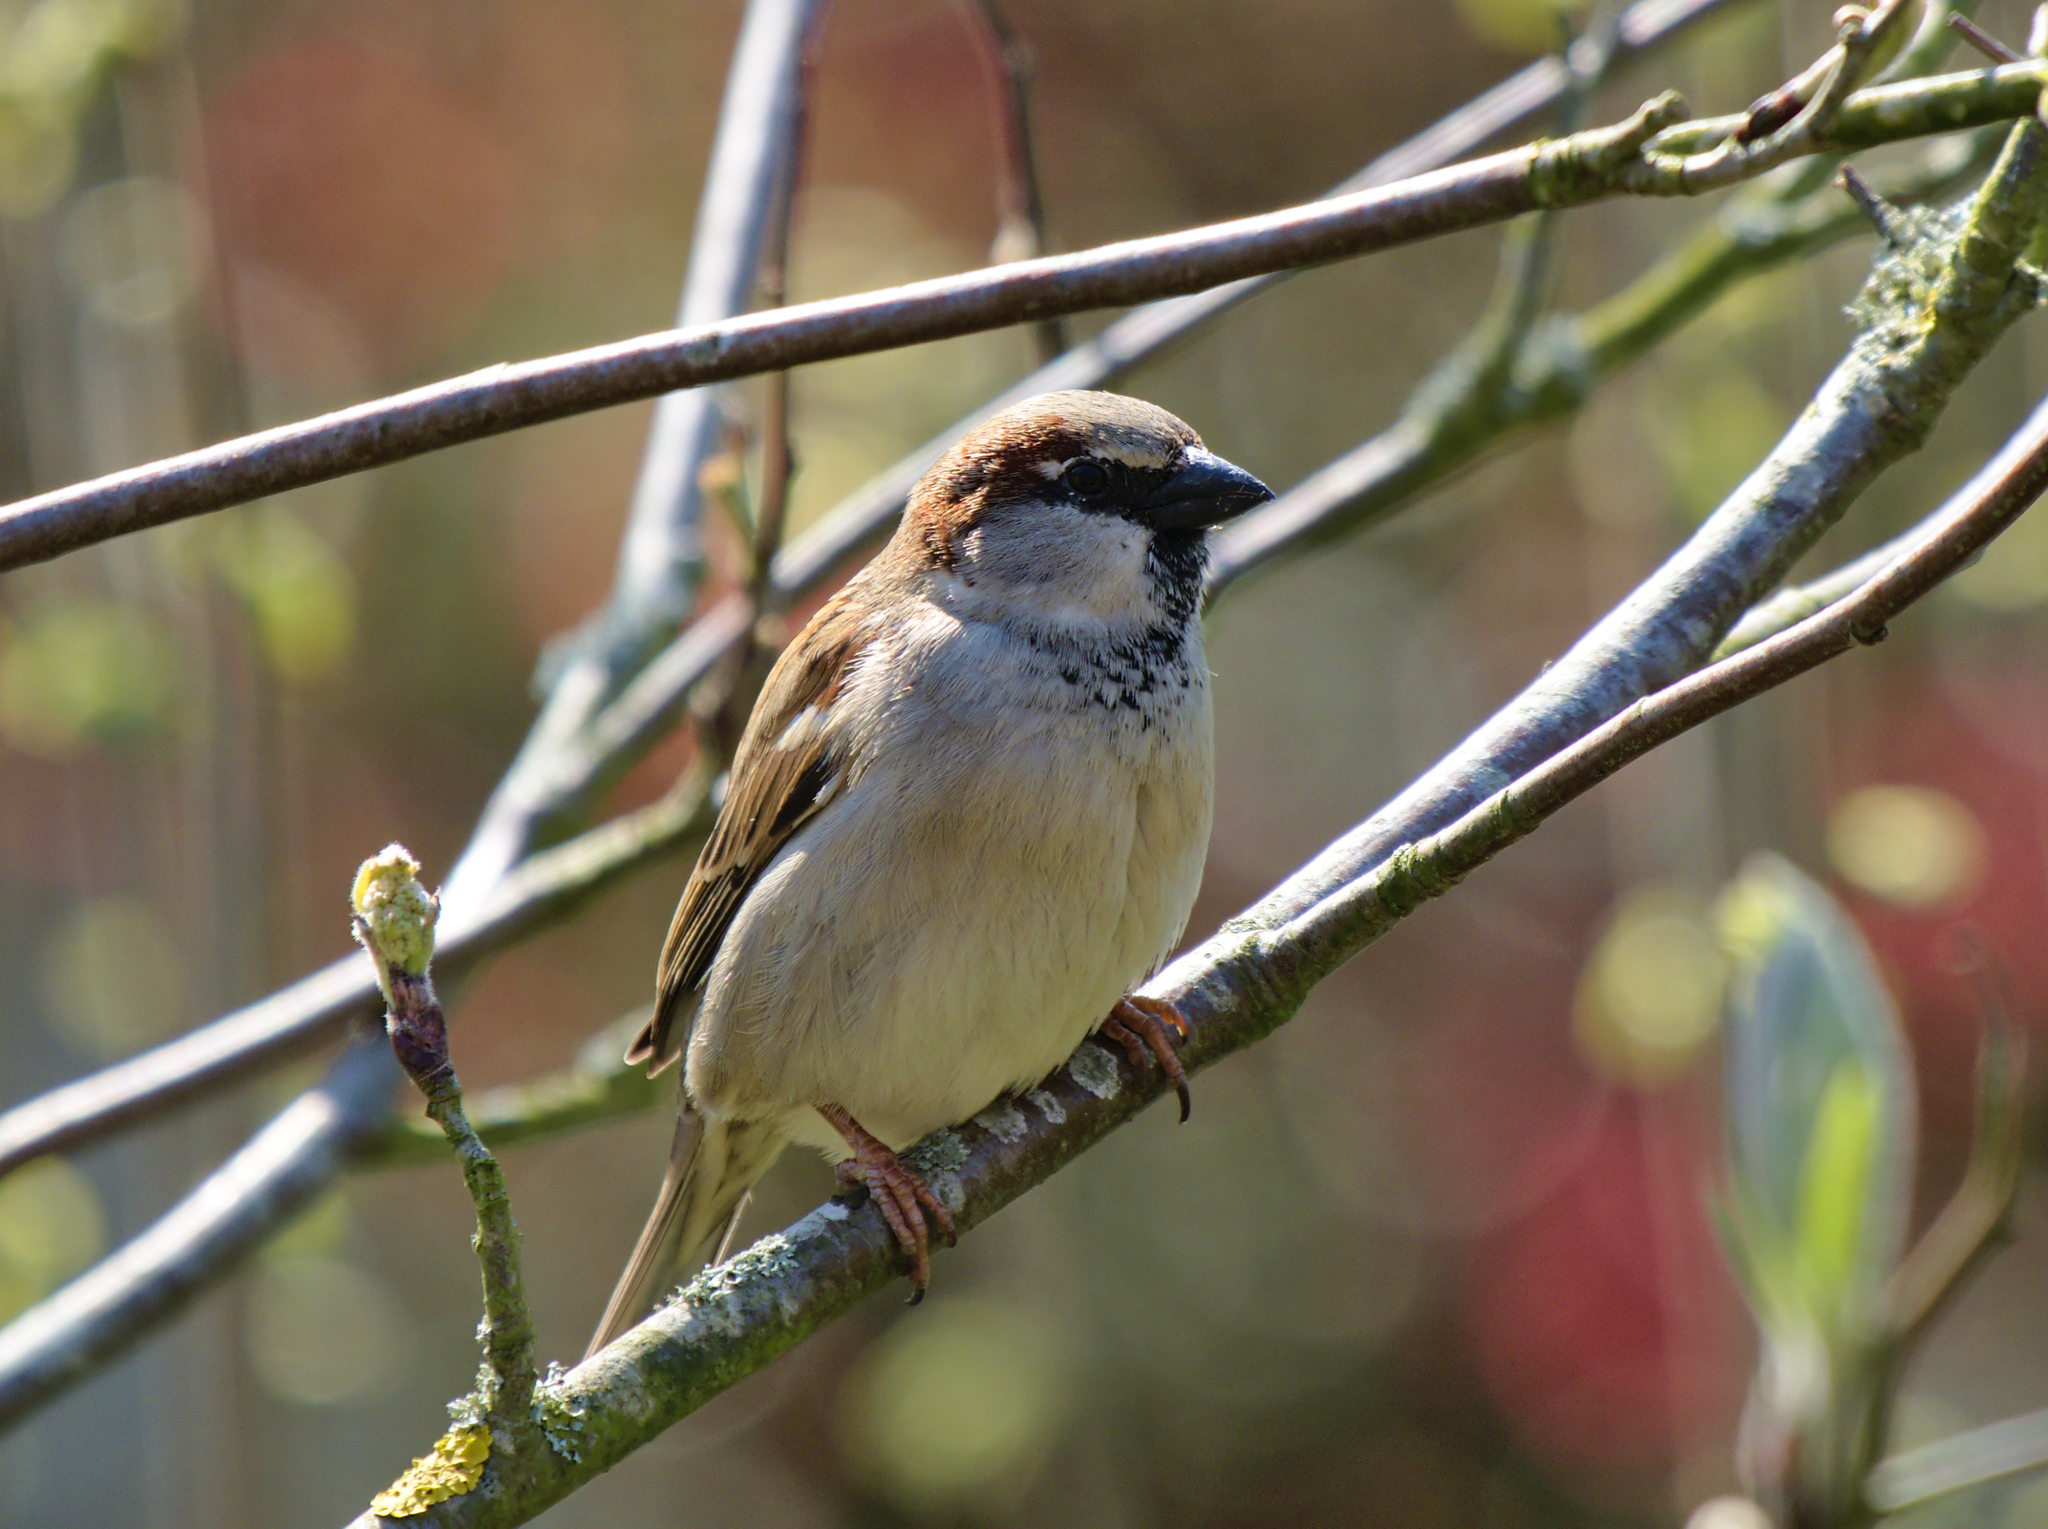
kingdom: Animalia
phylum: Chordata
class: Aves
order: Passeriformes
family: Passeridae
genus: Passer
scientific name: Passer domesticus
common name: House sparrow
